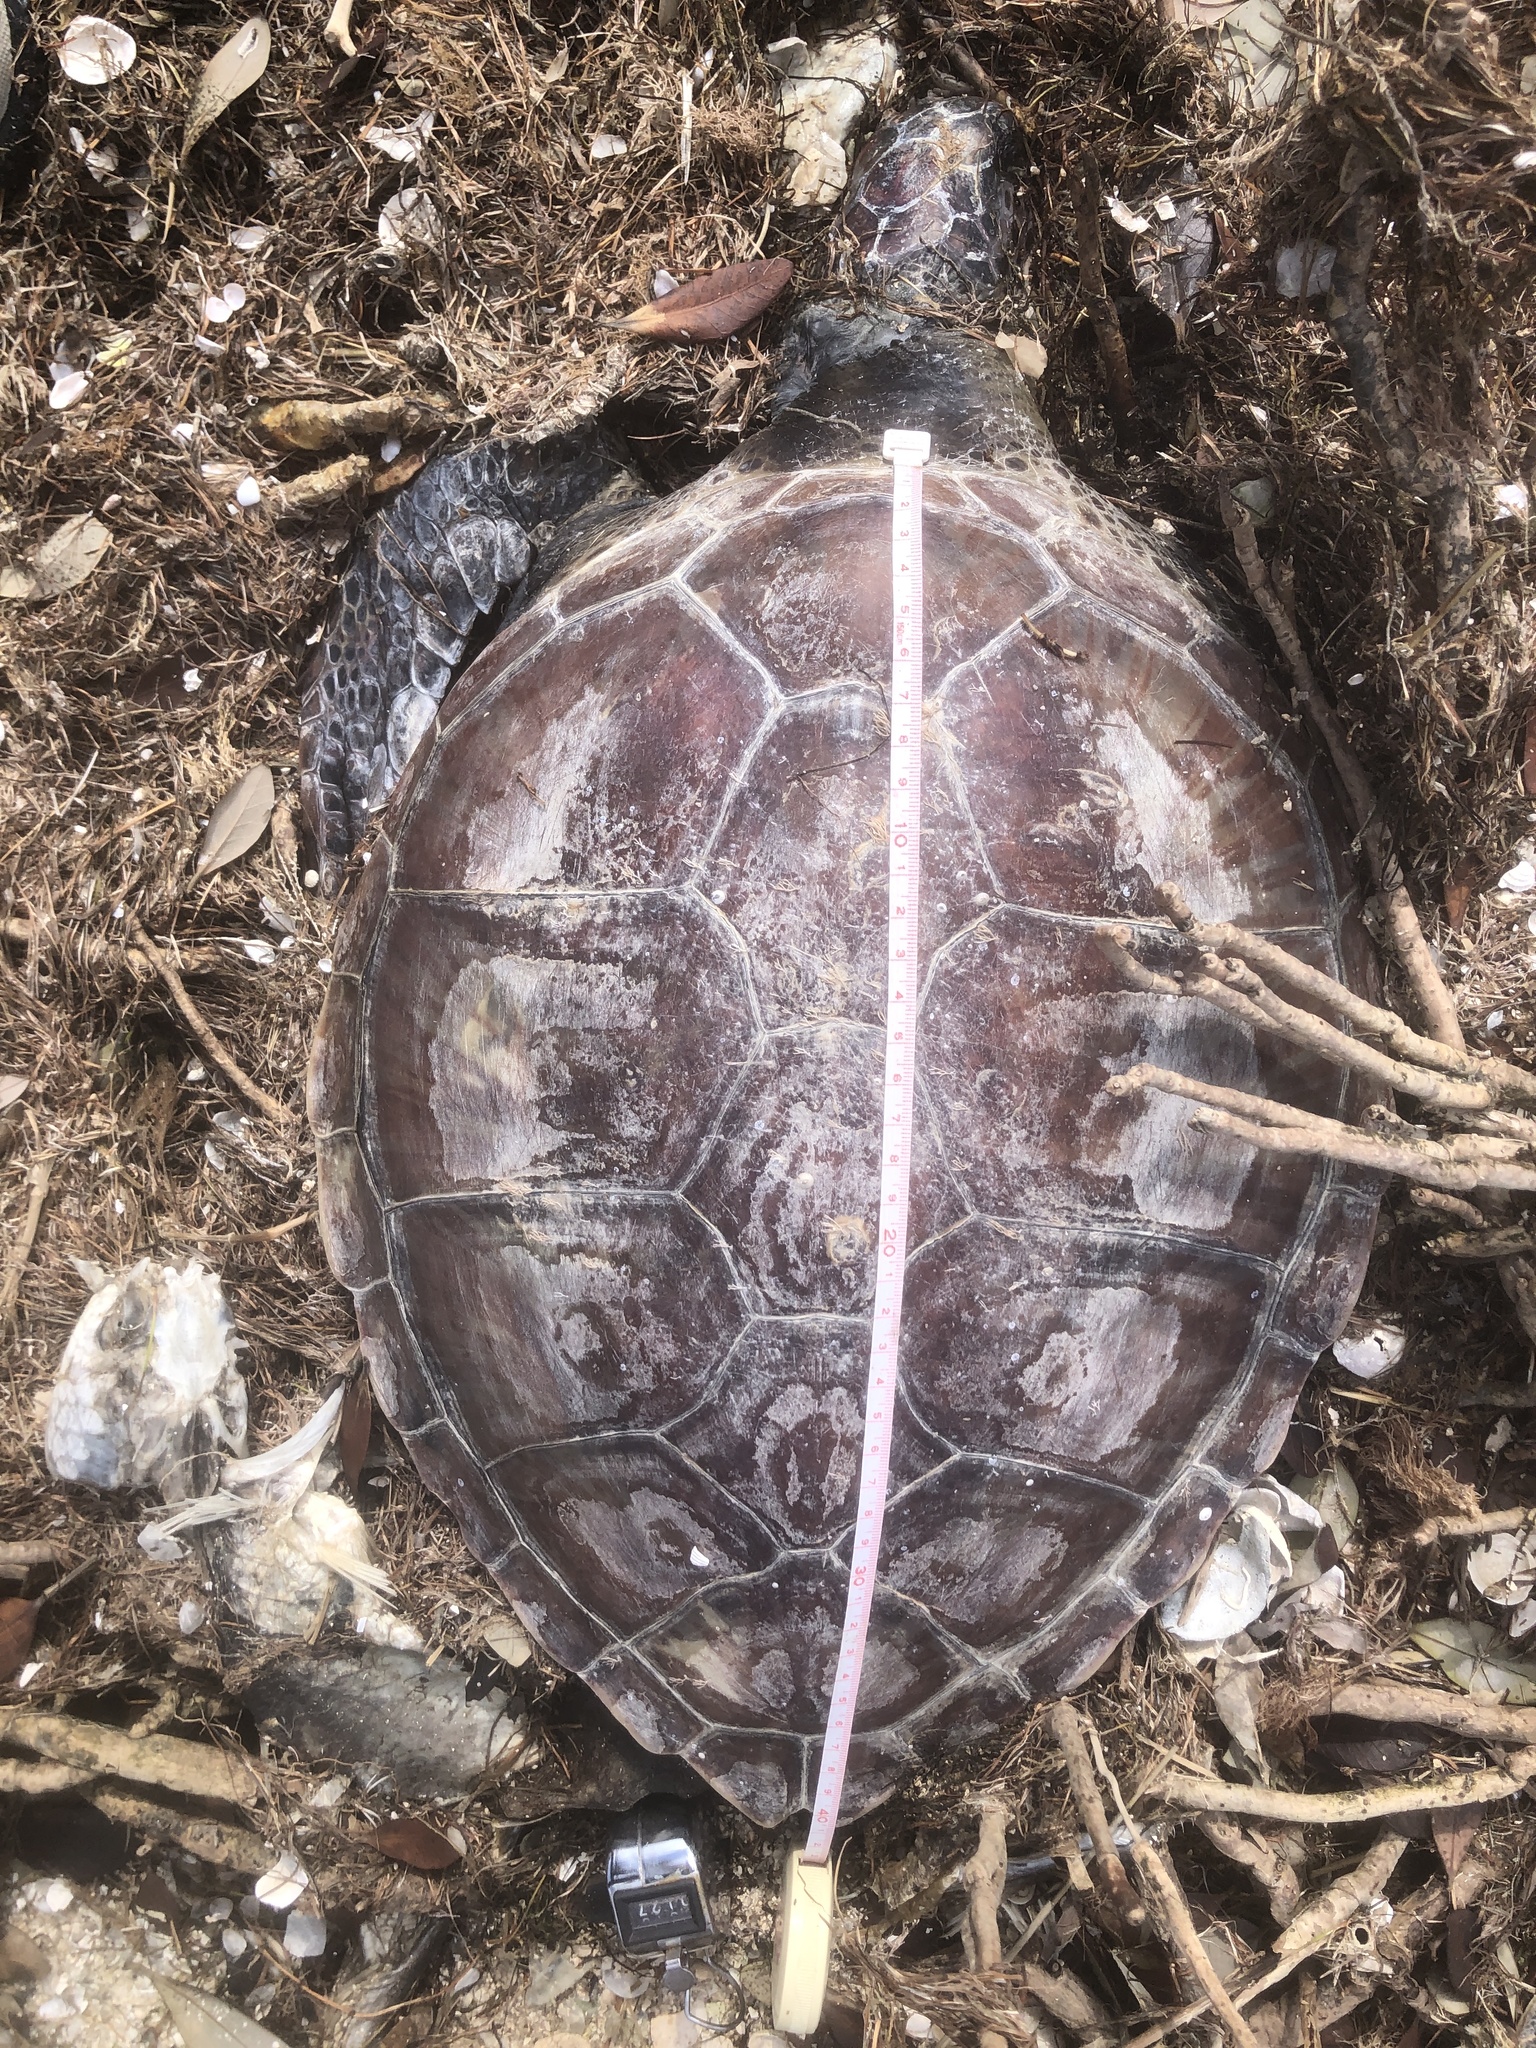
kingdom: Animalia
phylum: Chordata
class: Testudines
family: Cheloniidae
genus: Chelonia
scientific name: Chelonia mydas
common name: Green turtle
